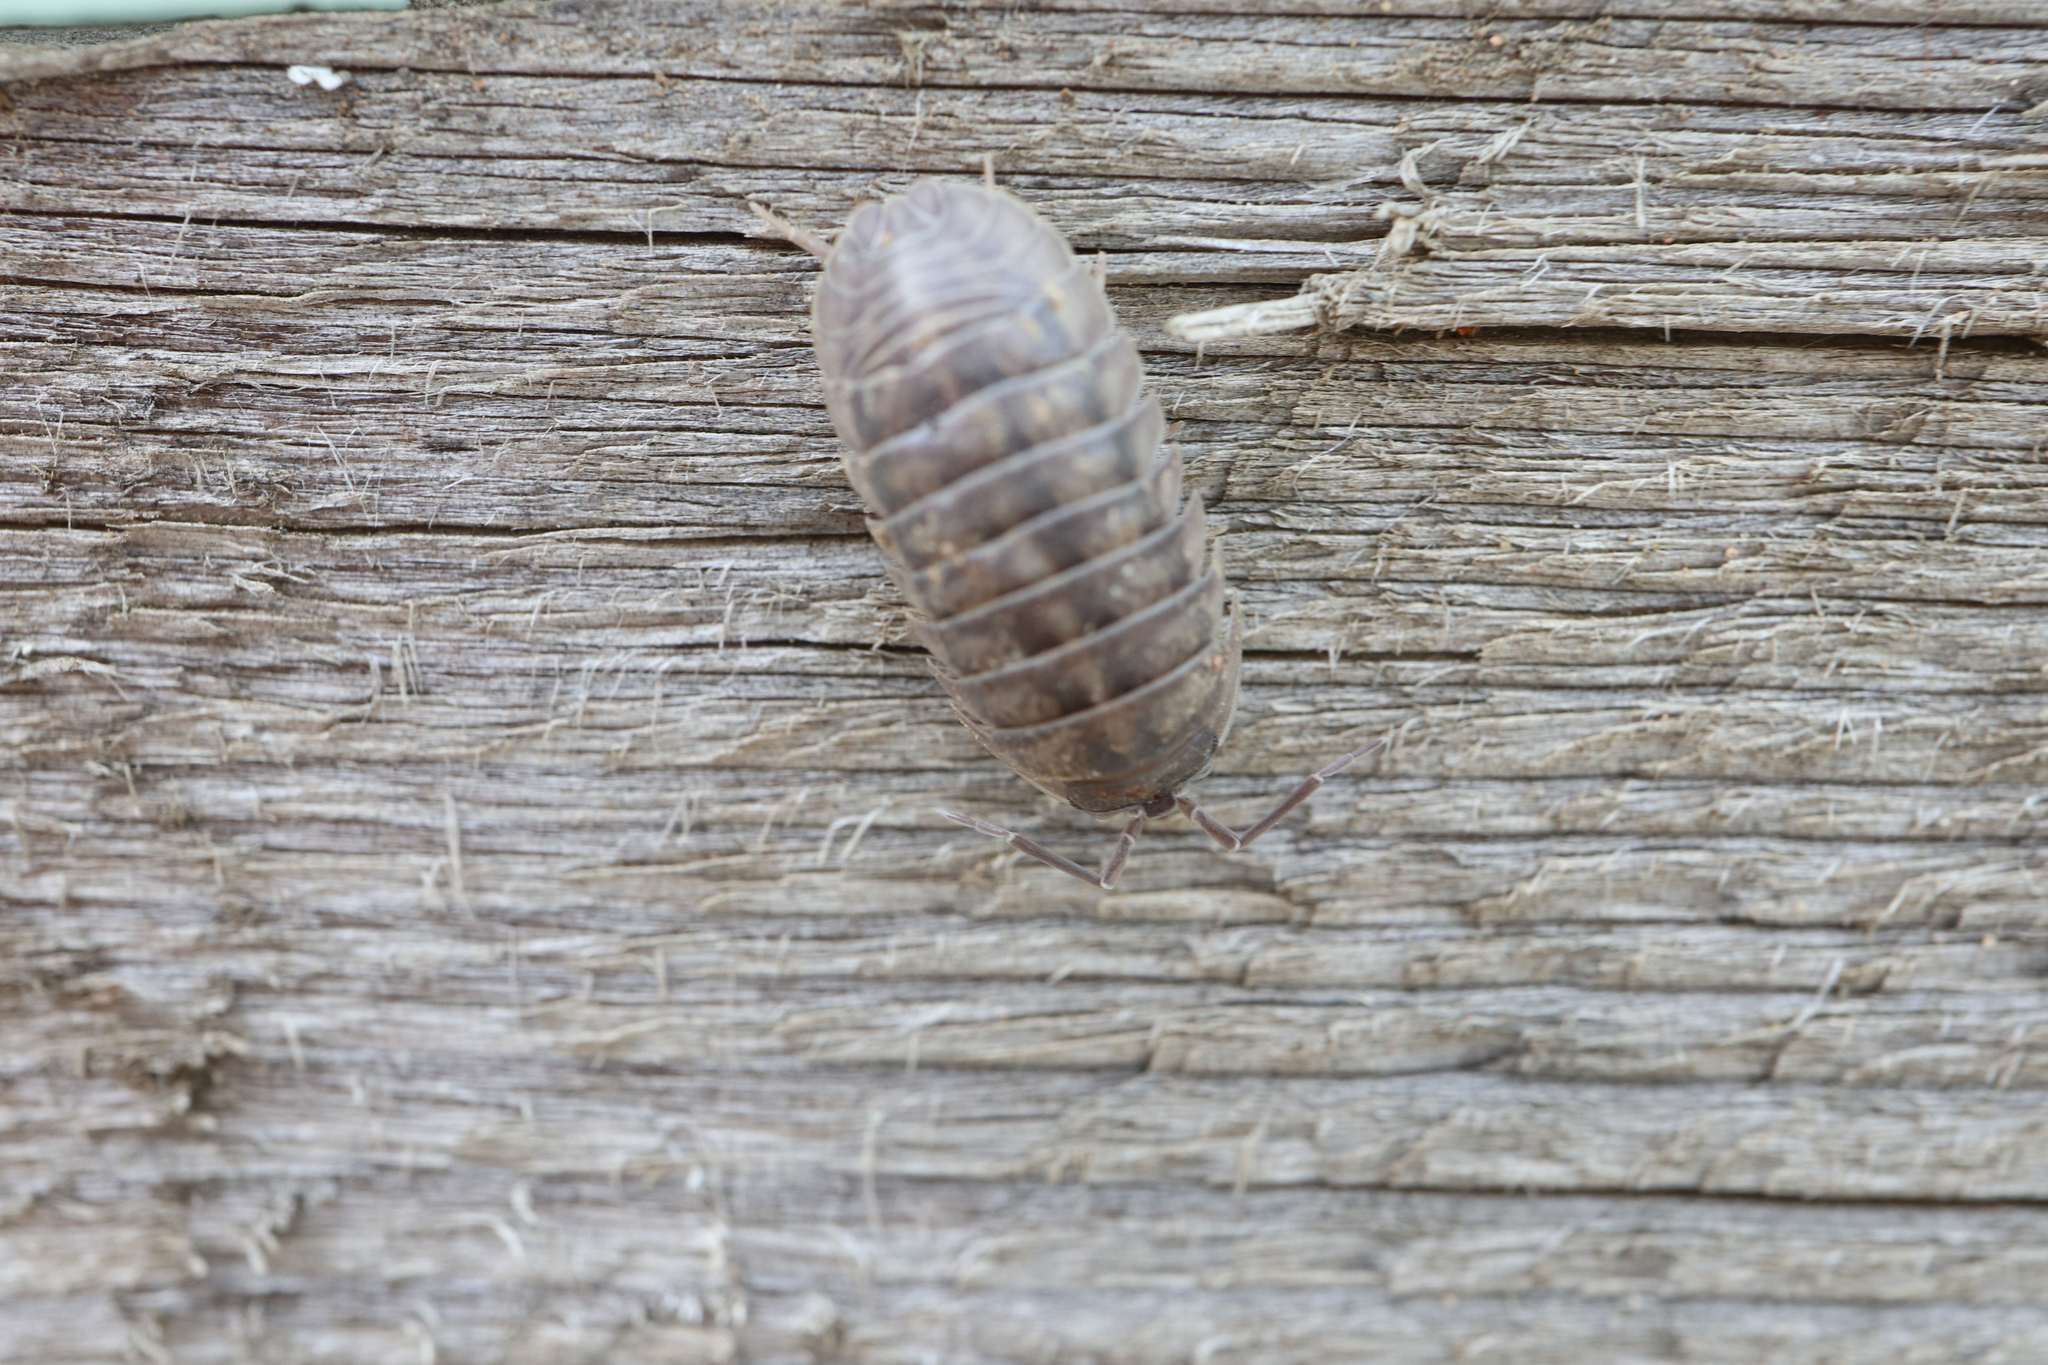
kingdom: Animalia
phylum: Arthropoda
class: Malacostraca
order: Isopoda
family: Armadillidiidae
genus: Armadillidium
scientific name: Armadillidium nasatum
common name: Isopod
